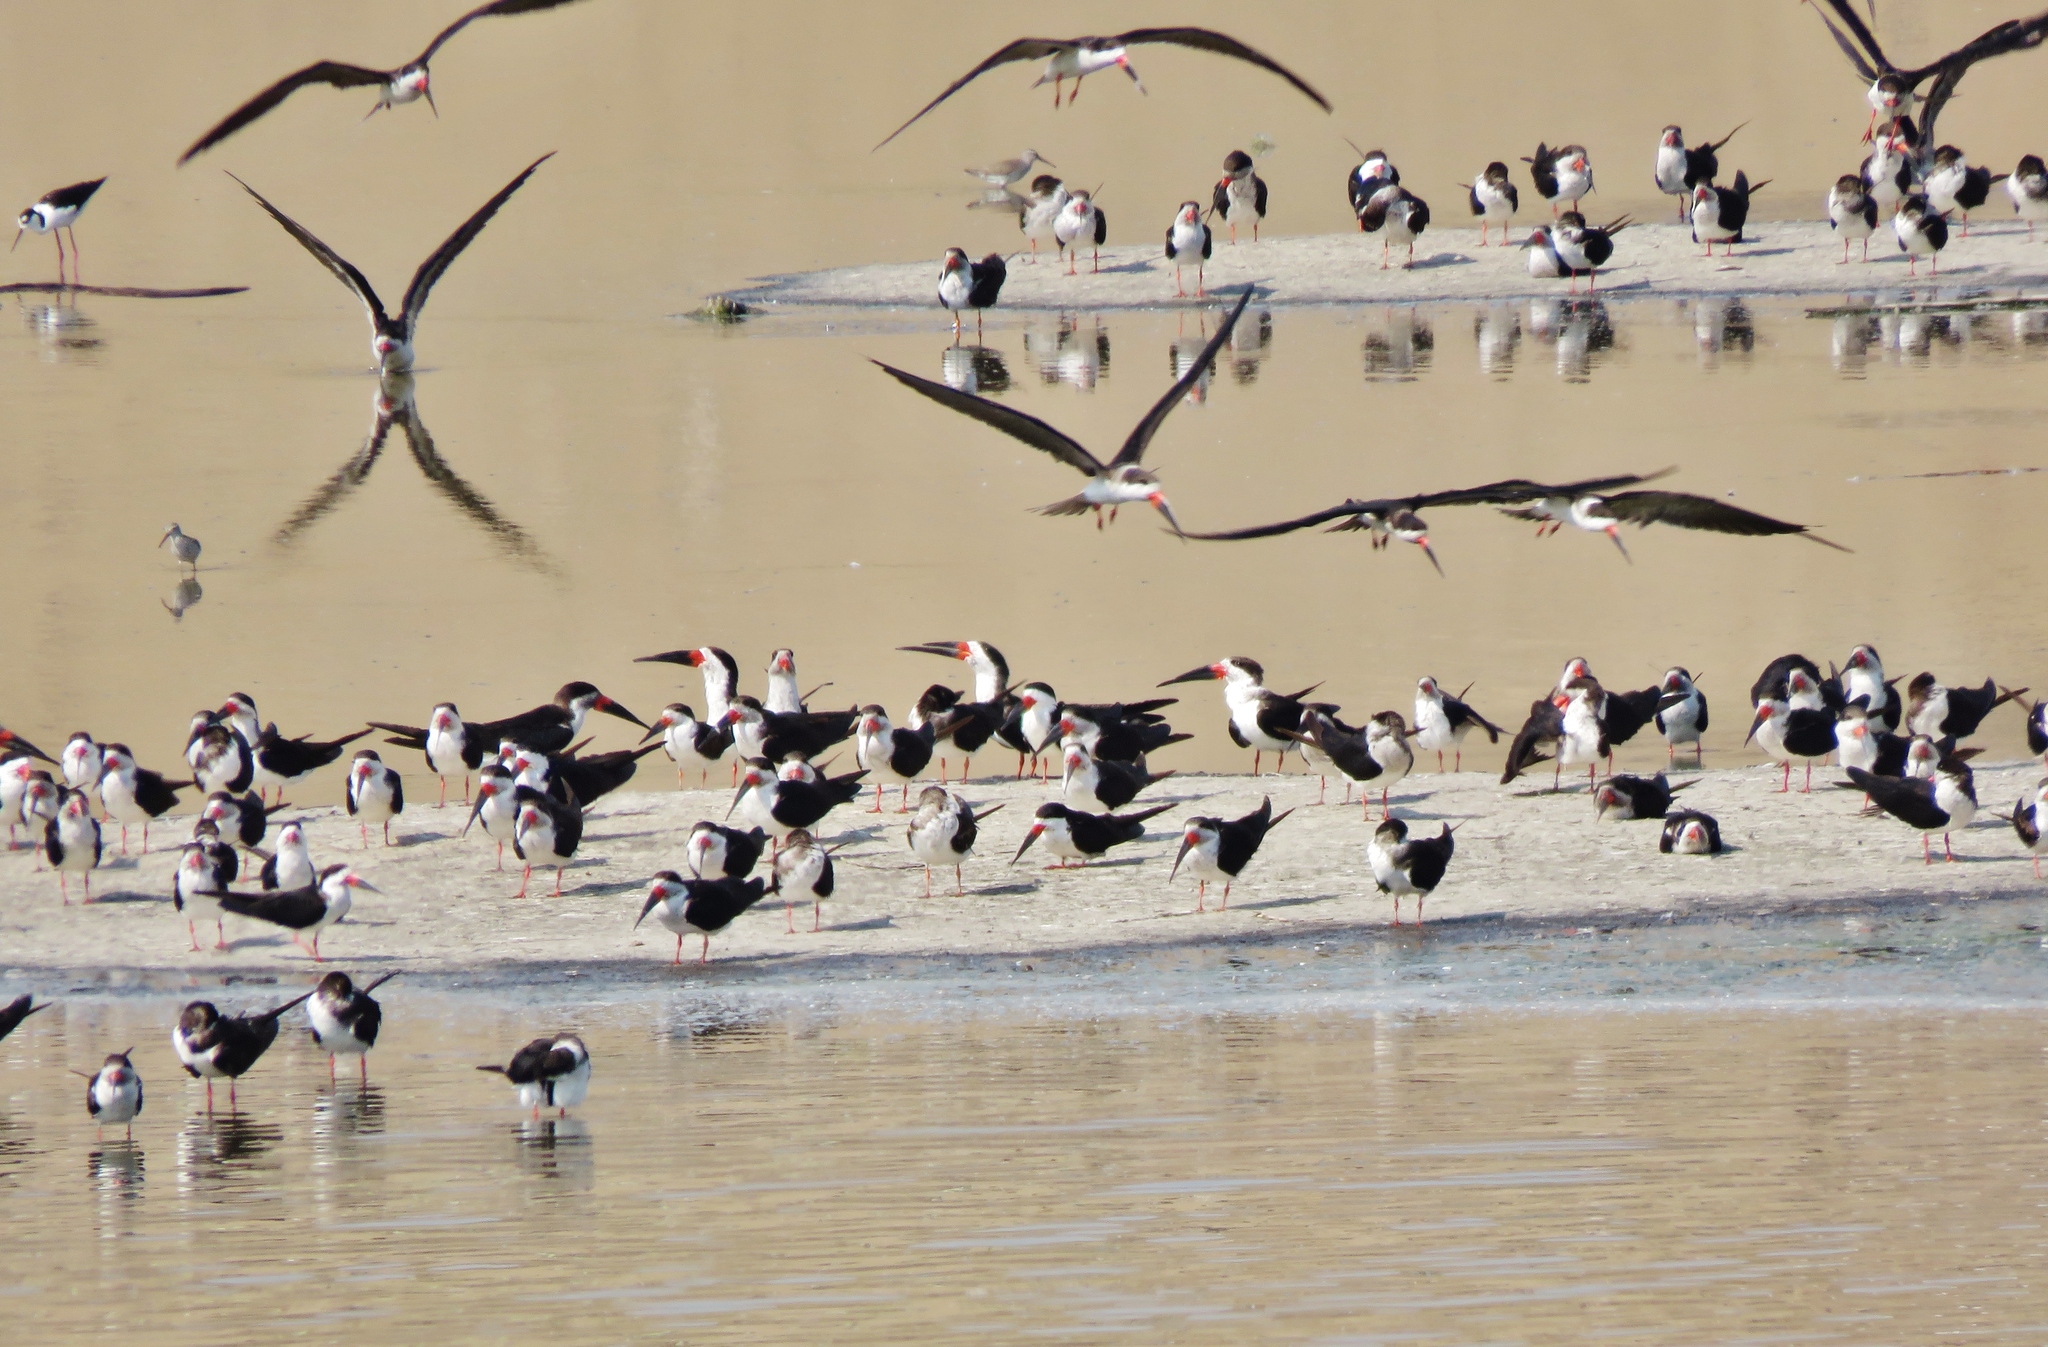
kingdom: Animalia
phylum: Chordata
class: Aves
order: Charadriiformes
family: Laridae
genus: Rynchops
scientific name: Rynchops niger
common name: Black skimmer
